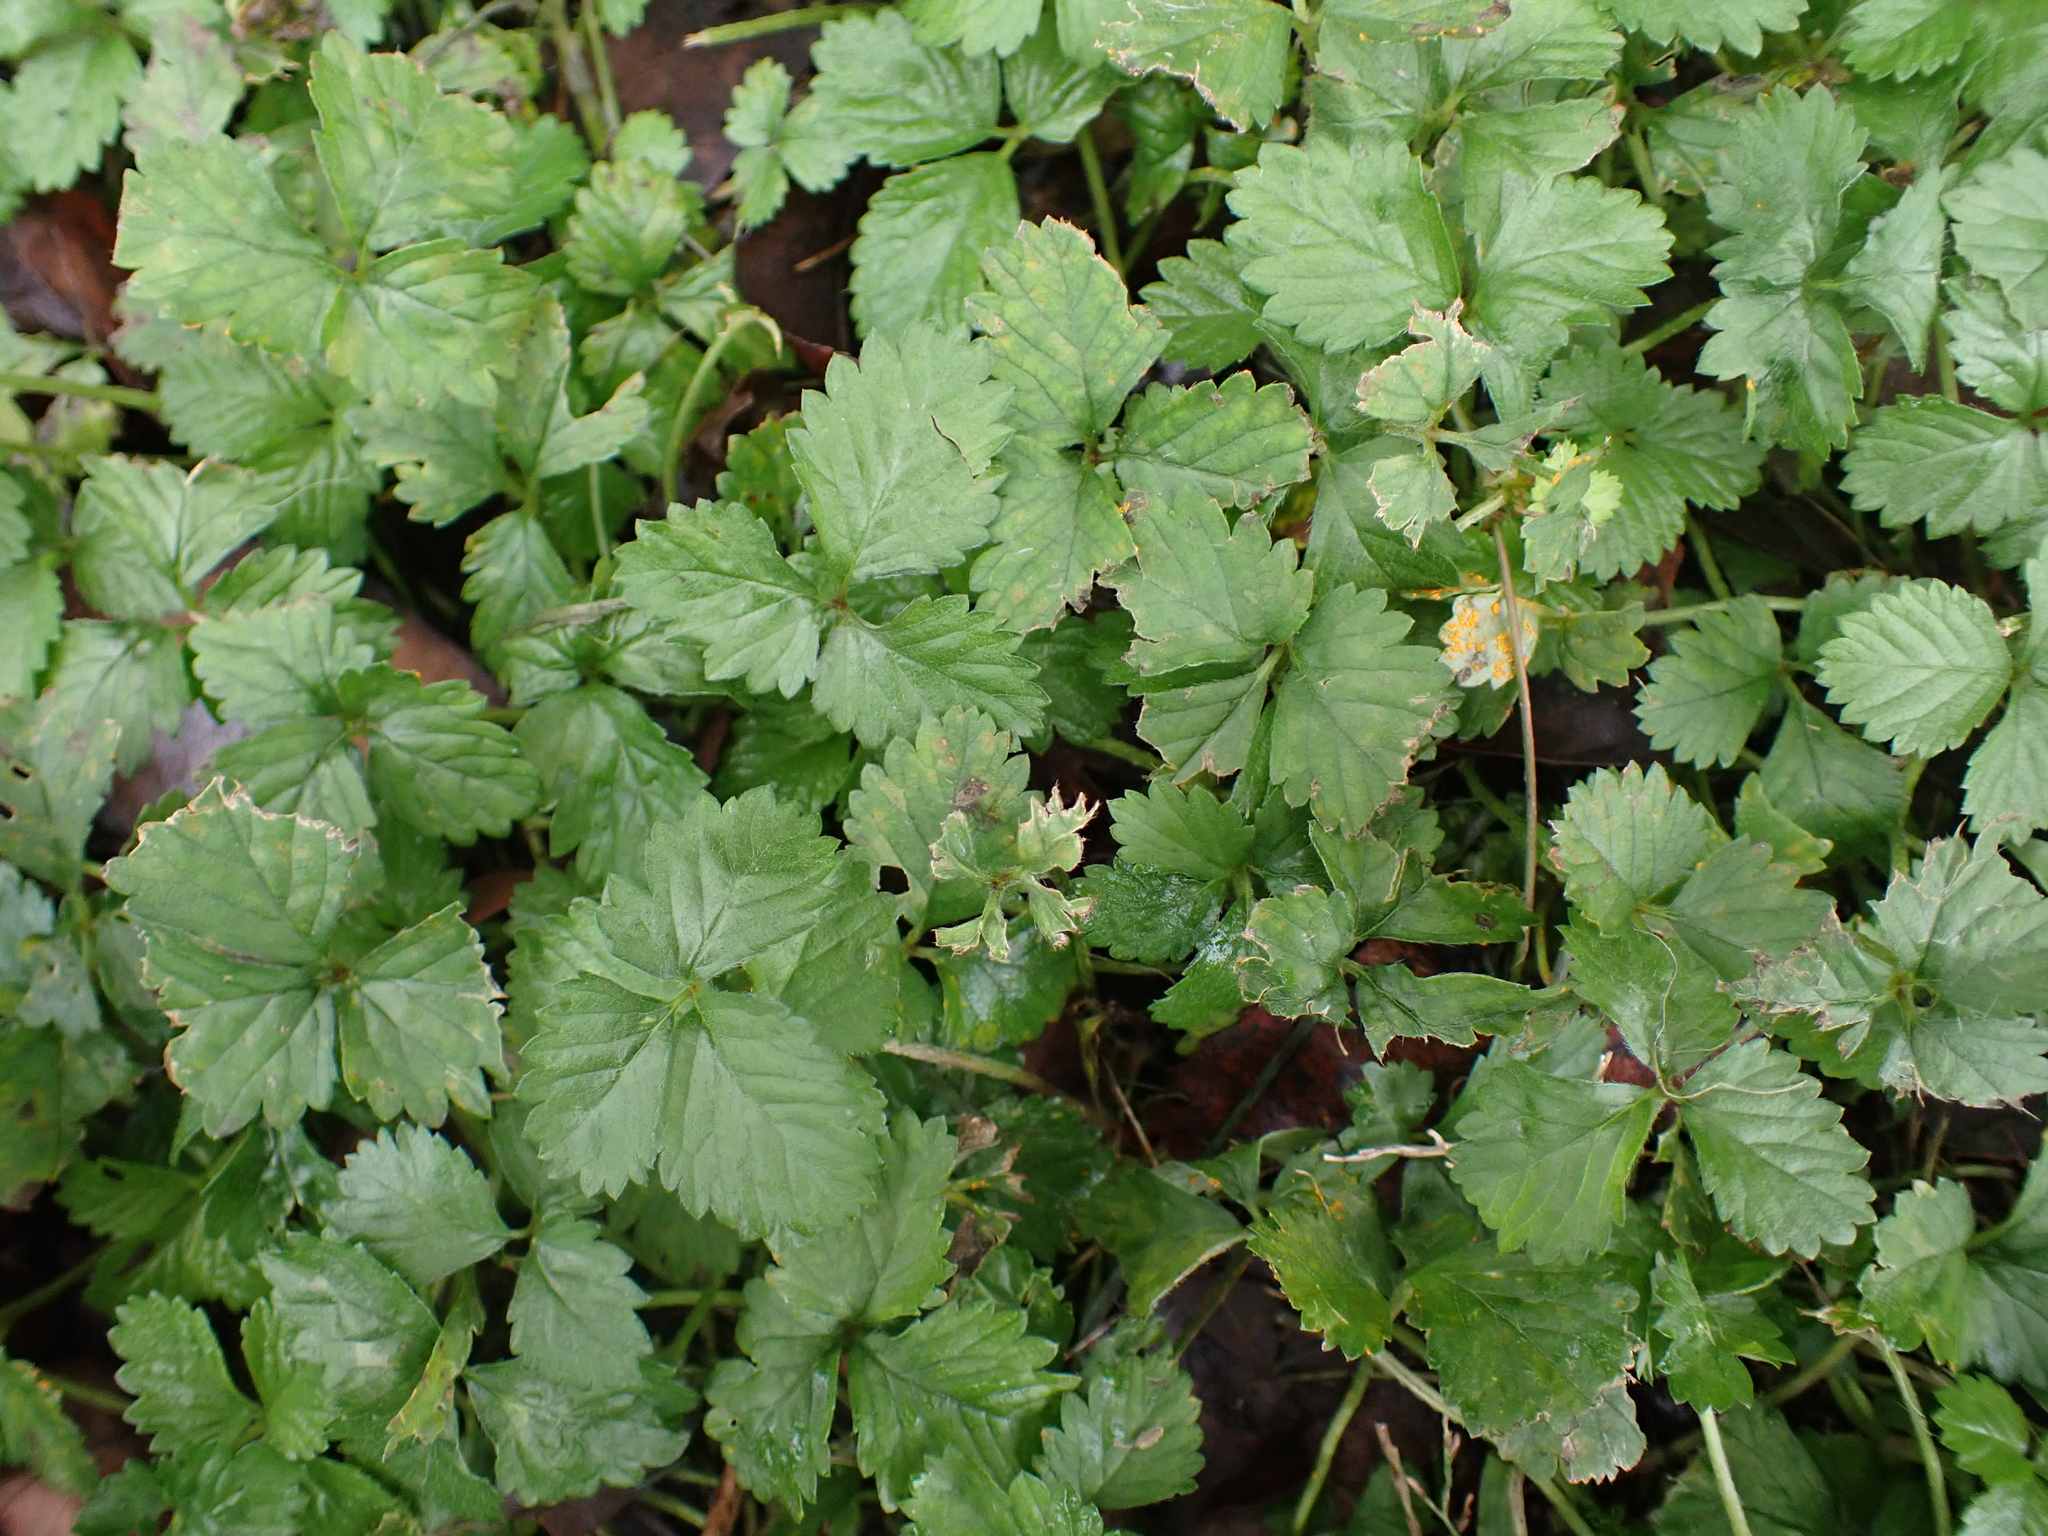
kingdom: Plantae
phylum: Tracheophyta
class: Magnoliopsida
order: Rosales
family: Rosaceae
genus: Potentilla
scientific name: Potentilla indica
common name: Yellow-flowered strawberry
